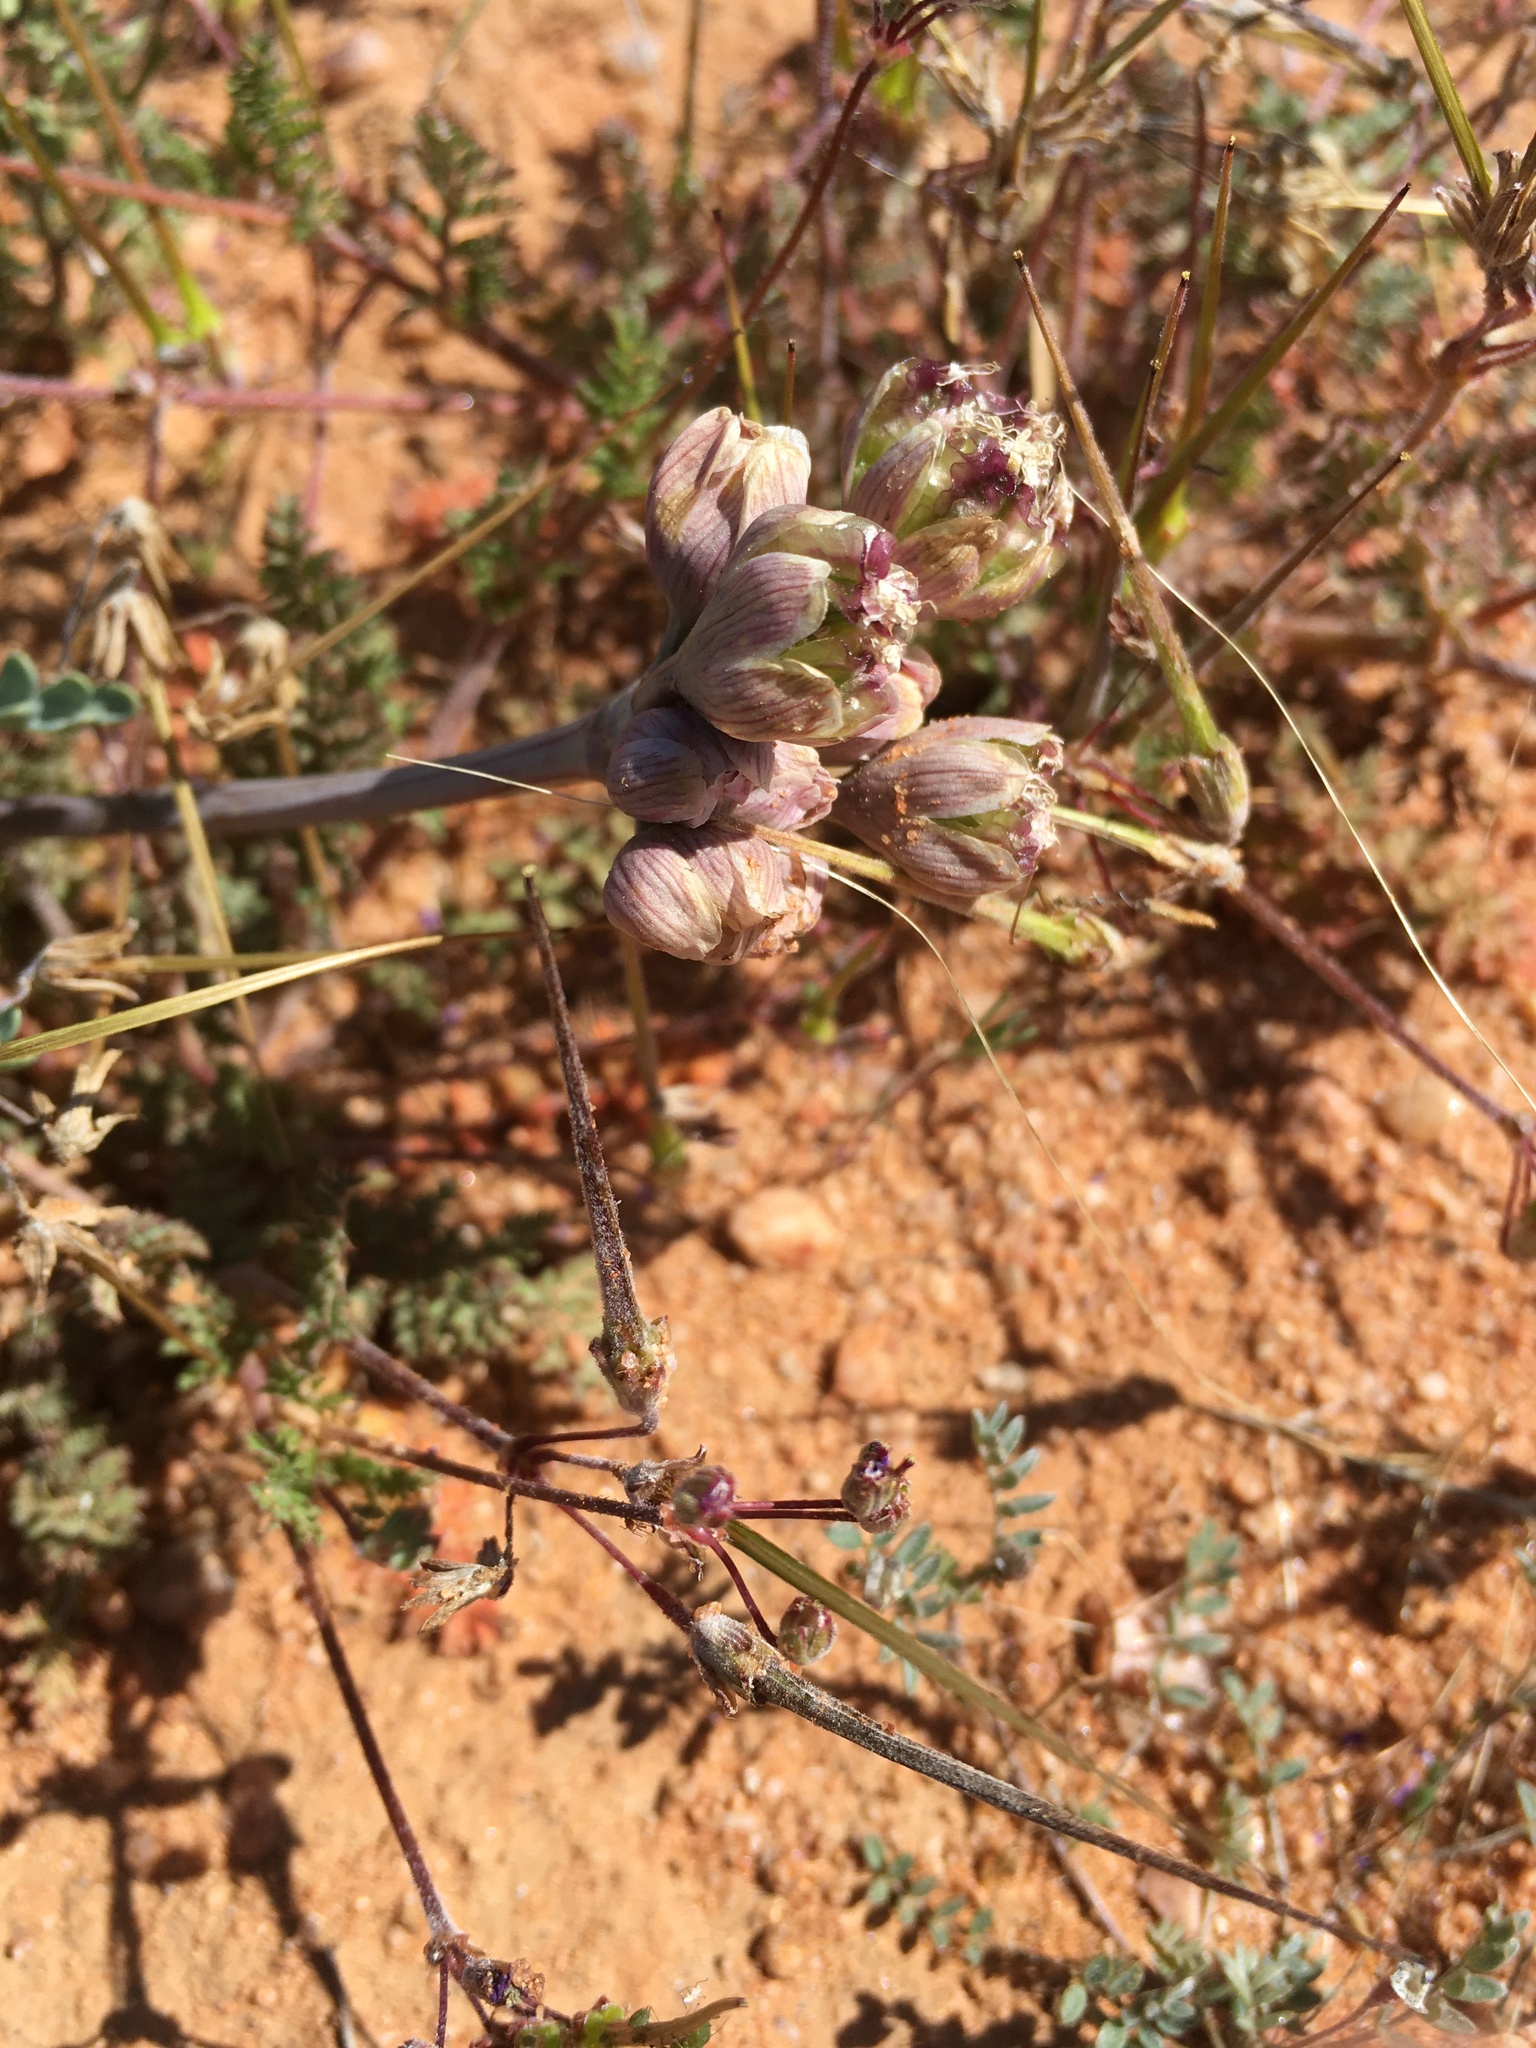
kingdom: Plantae
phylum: Tracheophyta
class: Magnoliopsida
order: Apiales
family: Apiaceae
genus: Vesper
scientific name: Vesper multinervatus
